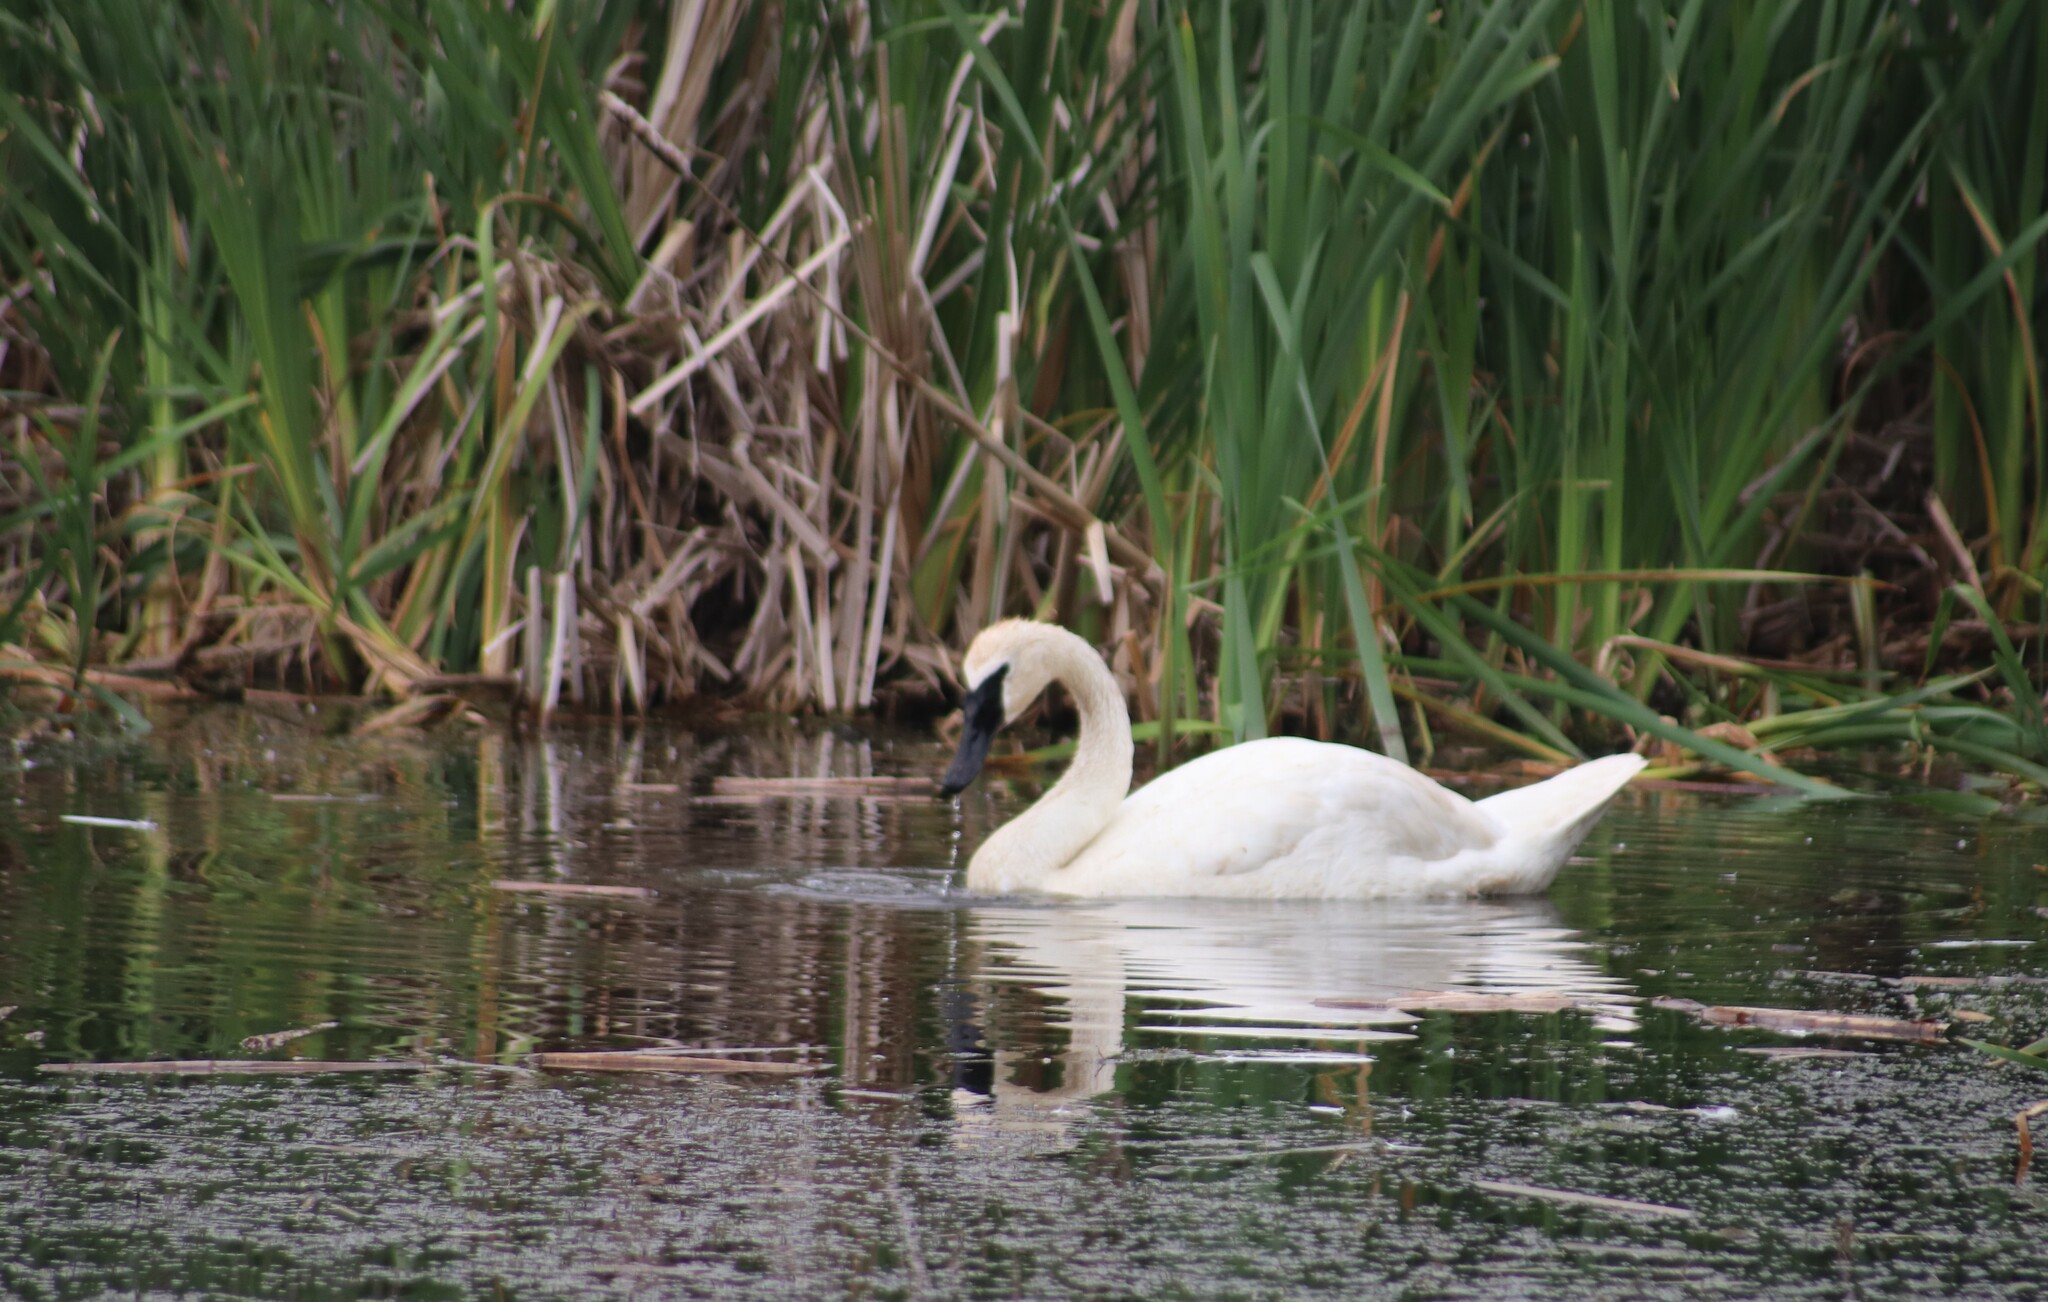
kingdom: Animalia
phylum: Chordata
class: Aves
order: Anseriformes
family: Anatidae
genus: Cygnus
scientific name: Cygnus buccinator
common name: Trumpeter swan
